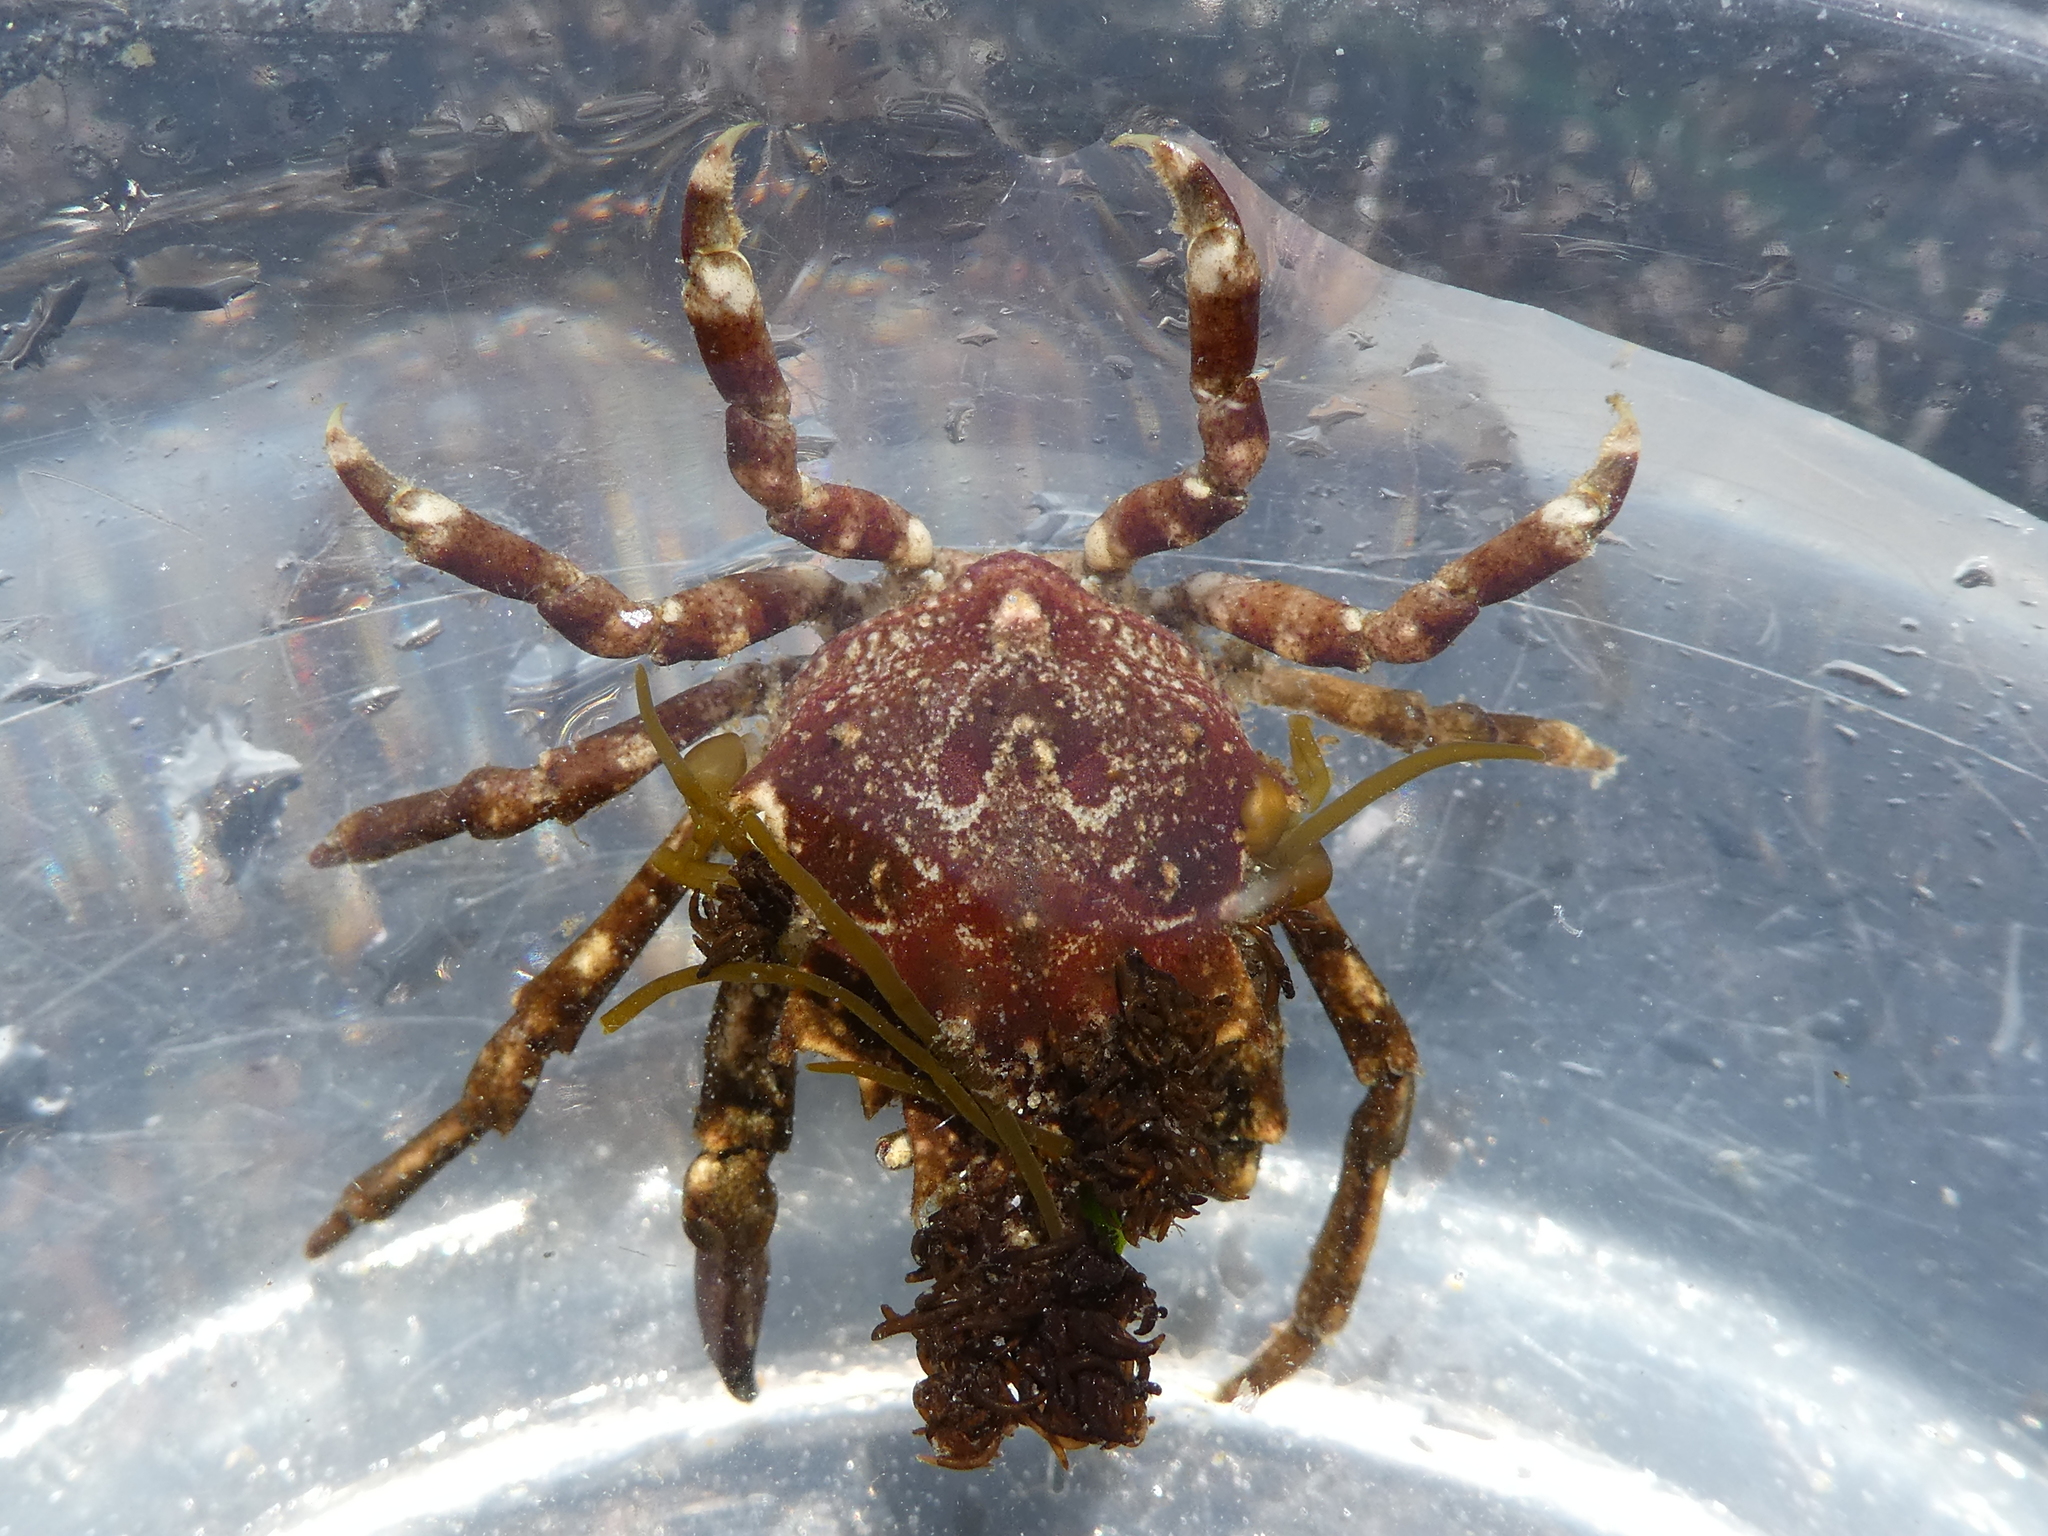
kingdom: Animalia
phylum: Arthropoda
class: Malacostraca
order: Decapoda
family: Epialtidae
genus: Pugettia
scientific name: Pugettia gracilis
